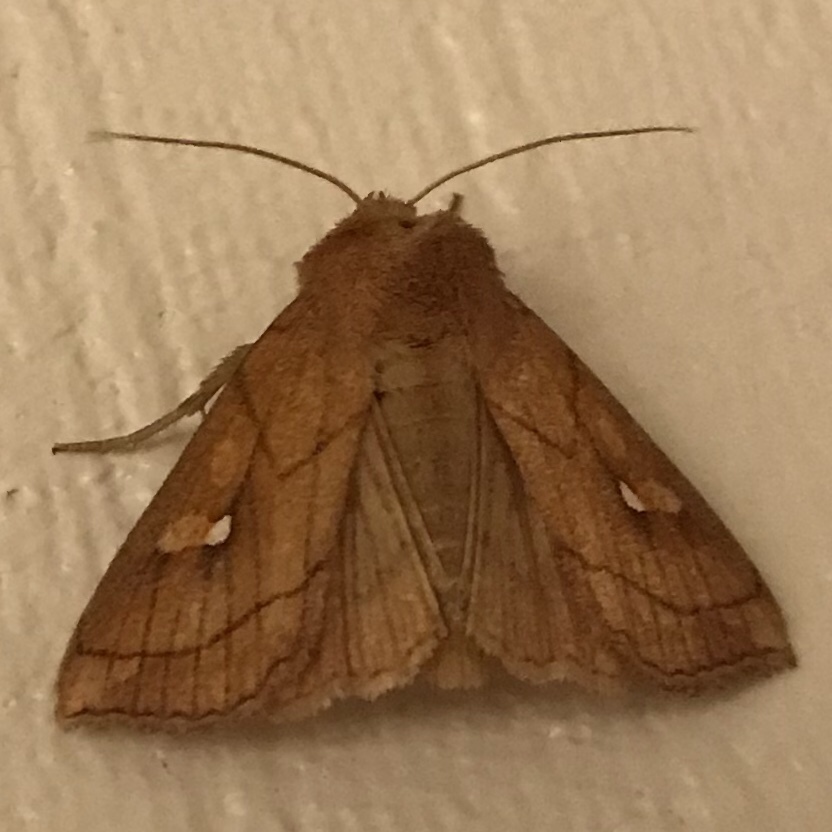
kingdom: Animalia
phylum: Arthropoda
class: Insecta
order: Lepidoptera
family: Noctuidae
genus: Mythimna
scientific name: Mythimna conigera
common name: Brown-line bright-eye
